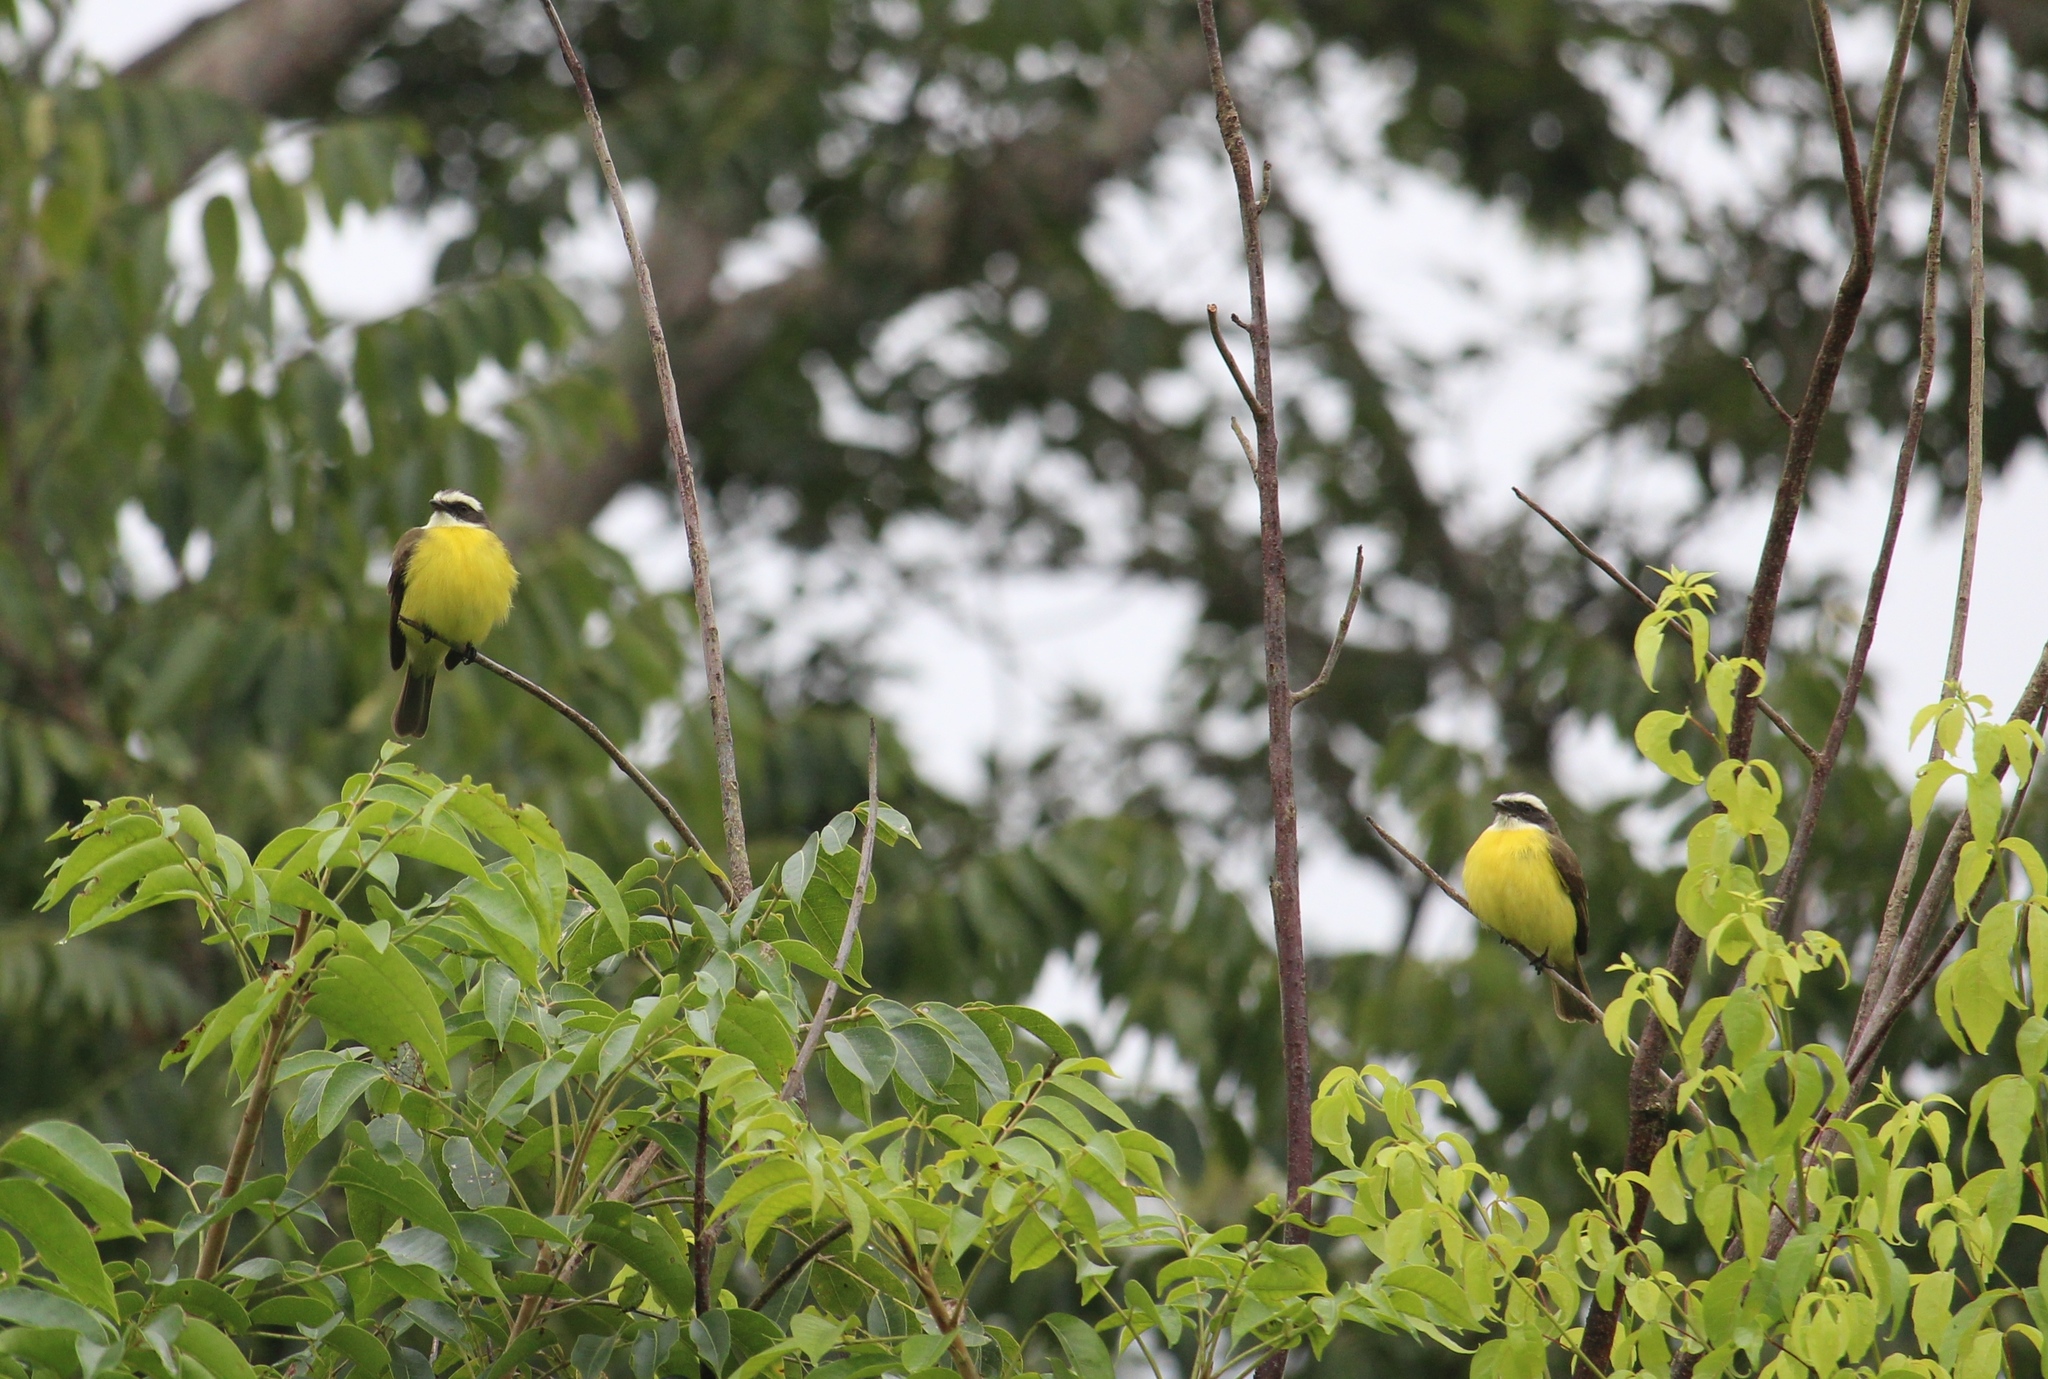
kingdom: Animalia
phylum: Chordata
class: Aves
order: Passeriformes
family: Tyrannidae
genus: Myiozetetes
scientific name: Myiozetetes similis
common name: Social flycatcher
